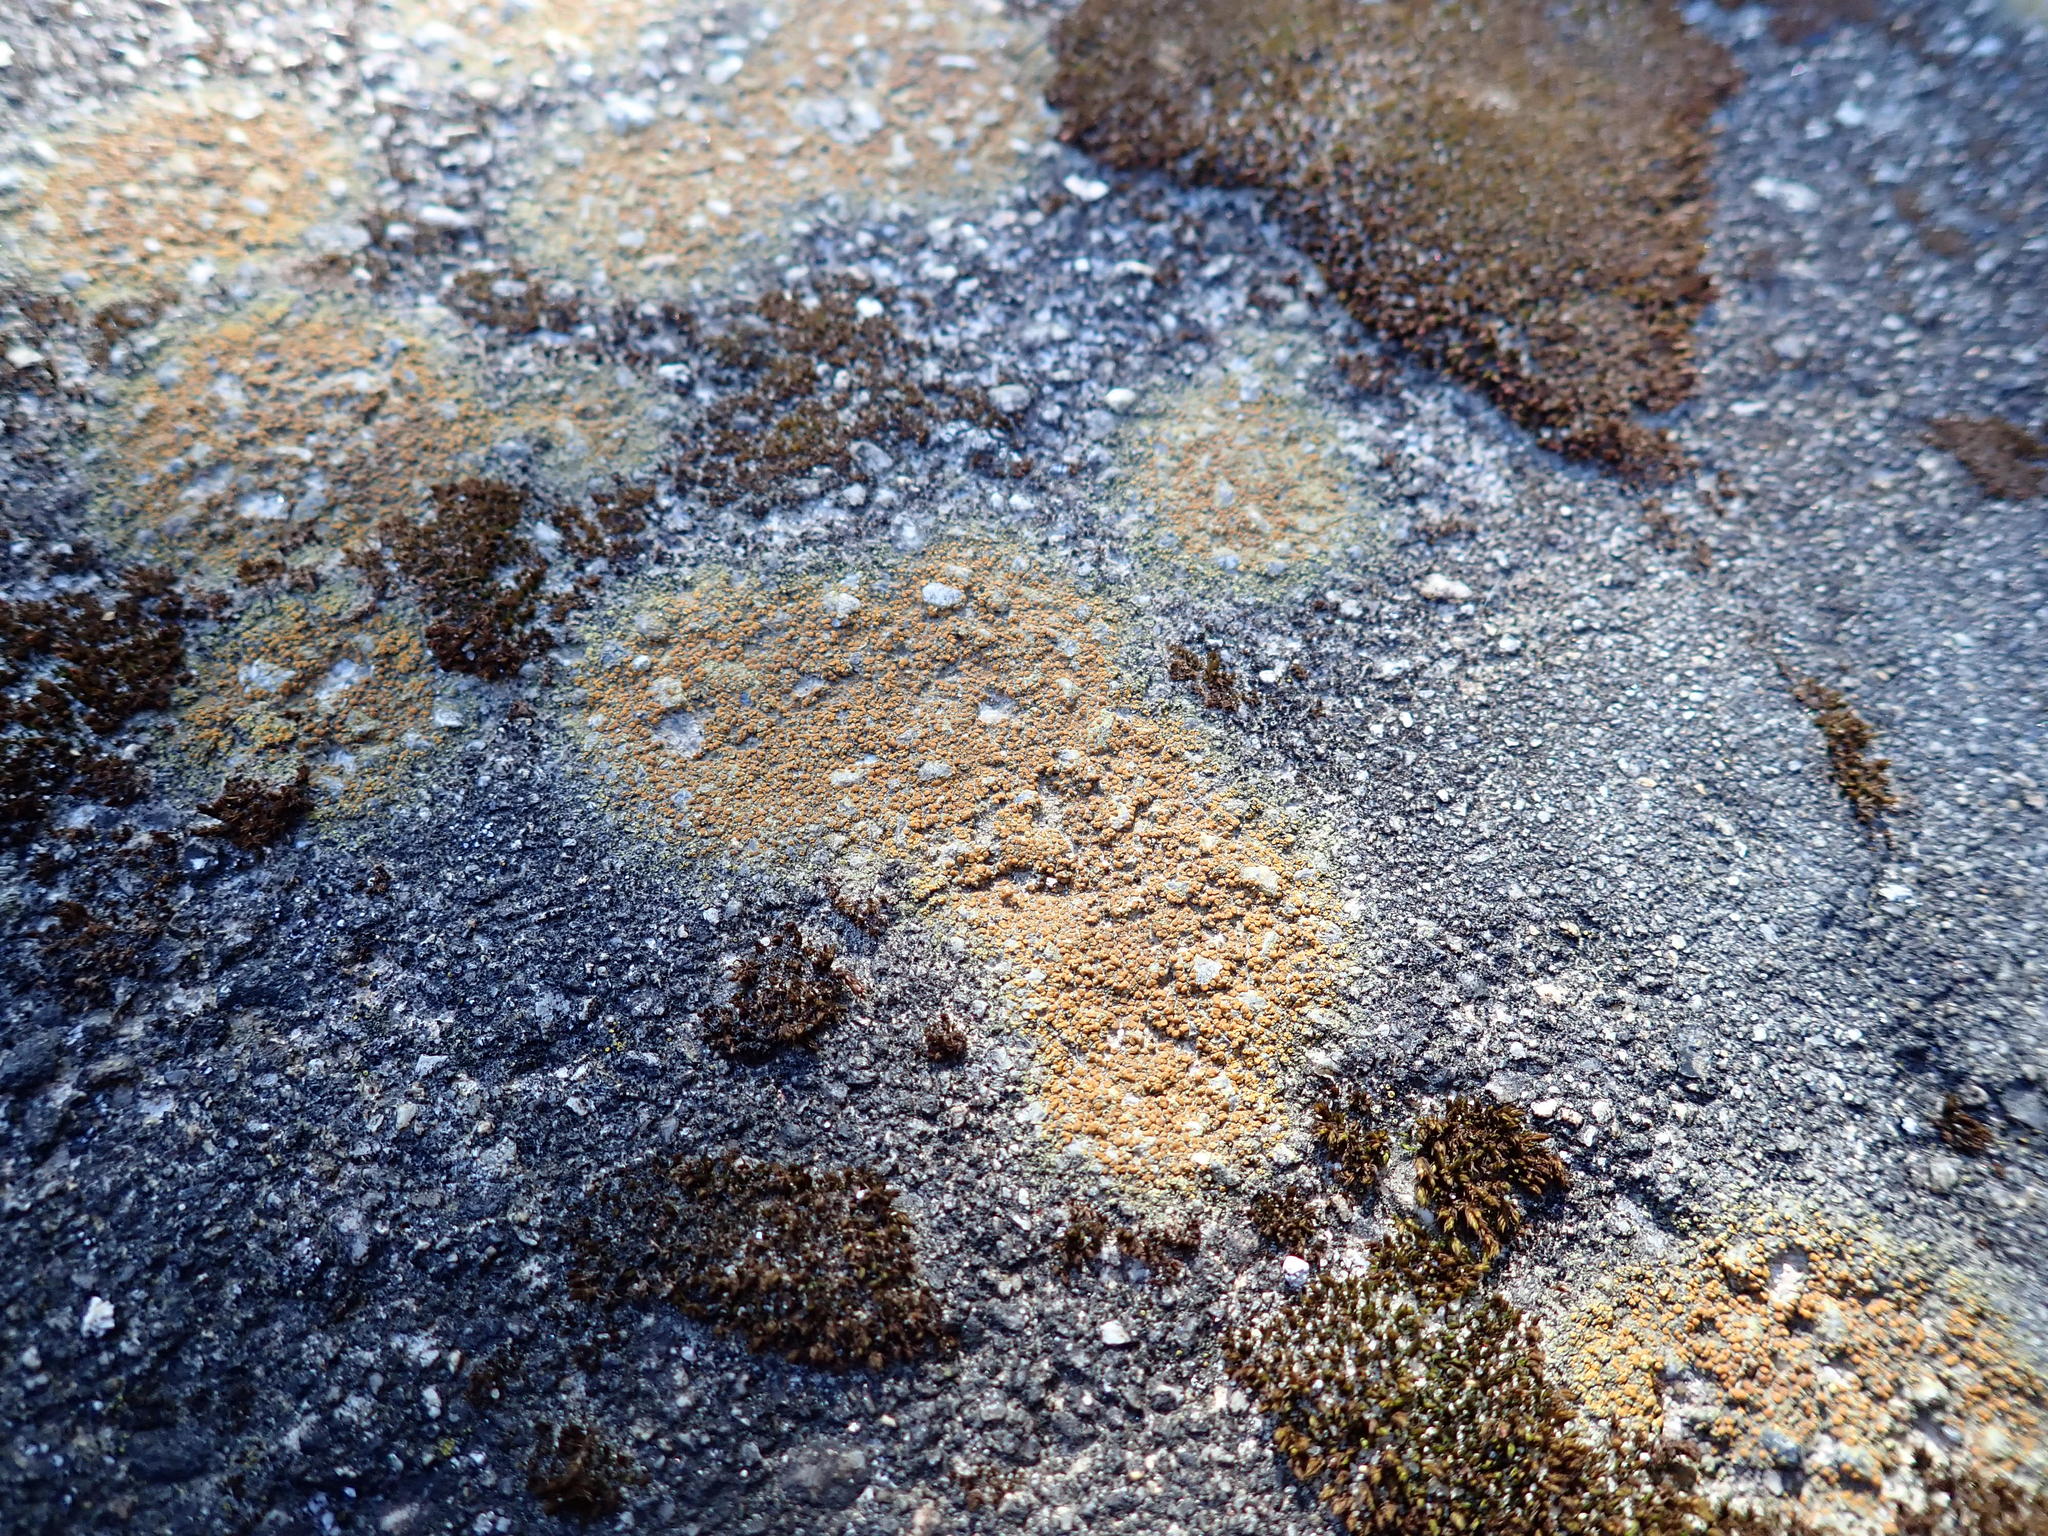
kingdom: Fungi
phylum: Ascomycota
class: Lecanoromycetes
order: Teloschistales
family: Teloschistaceae
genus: Gyalolechia
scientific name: Gyalolechia flavovirescens
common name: Sulphur firedot
